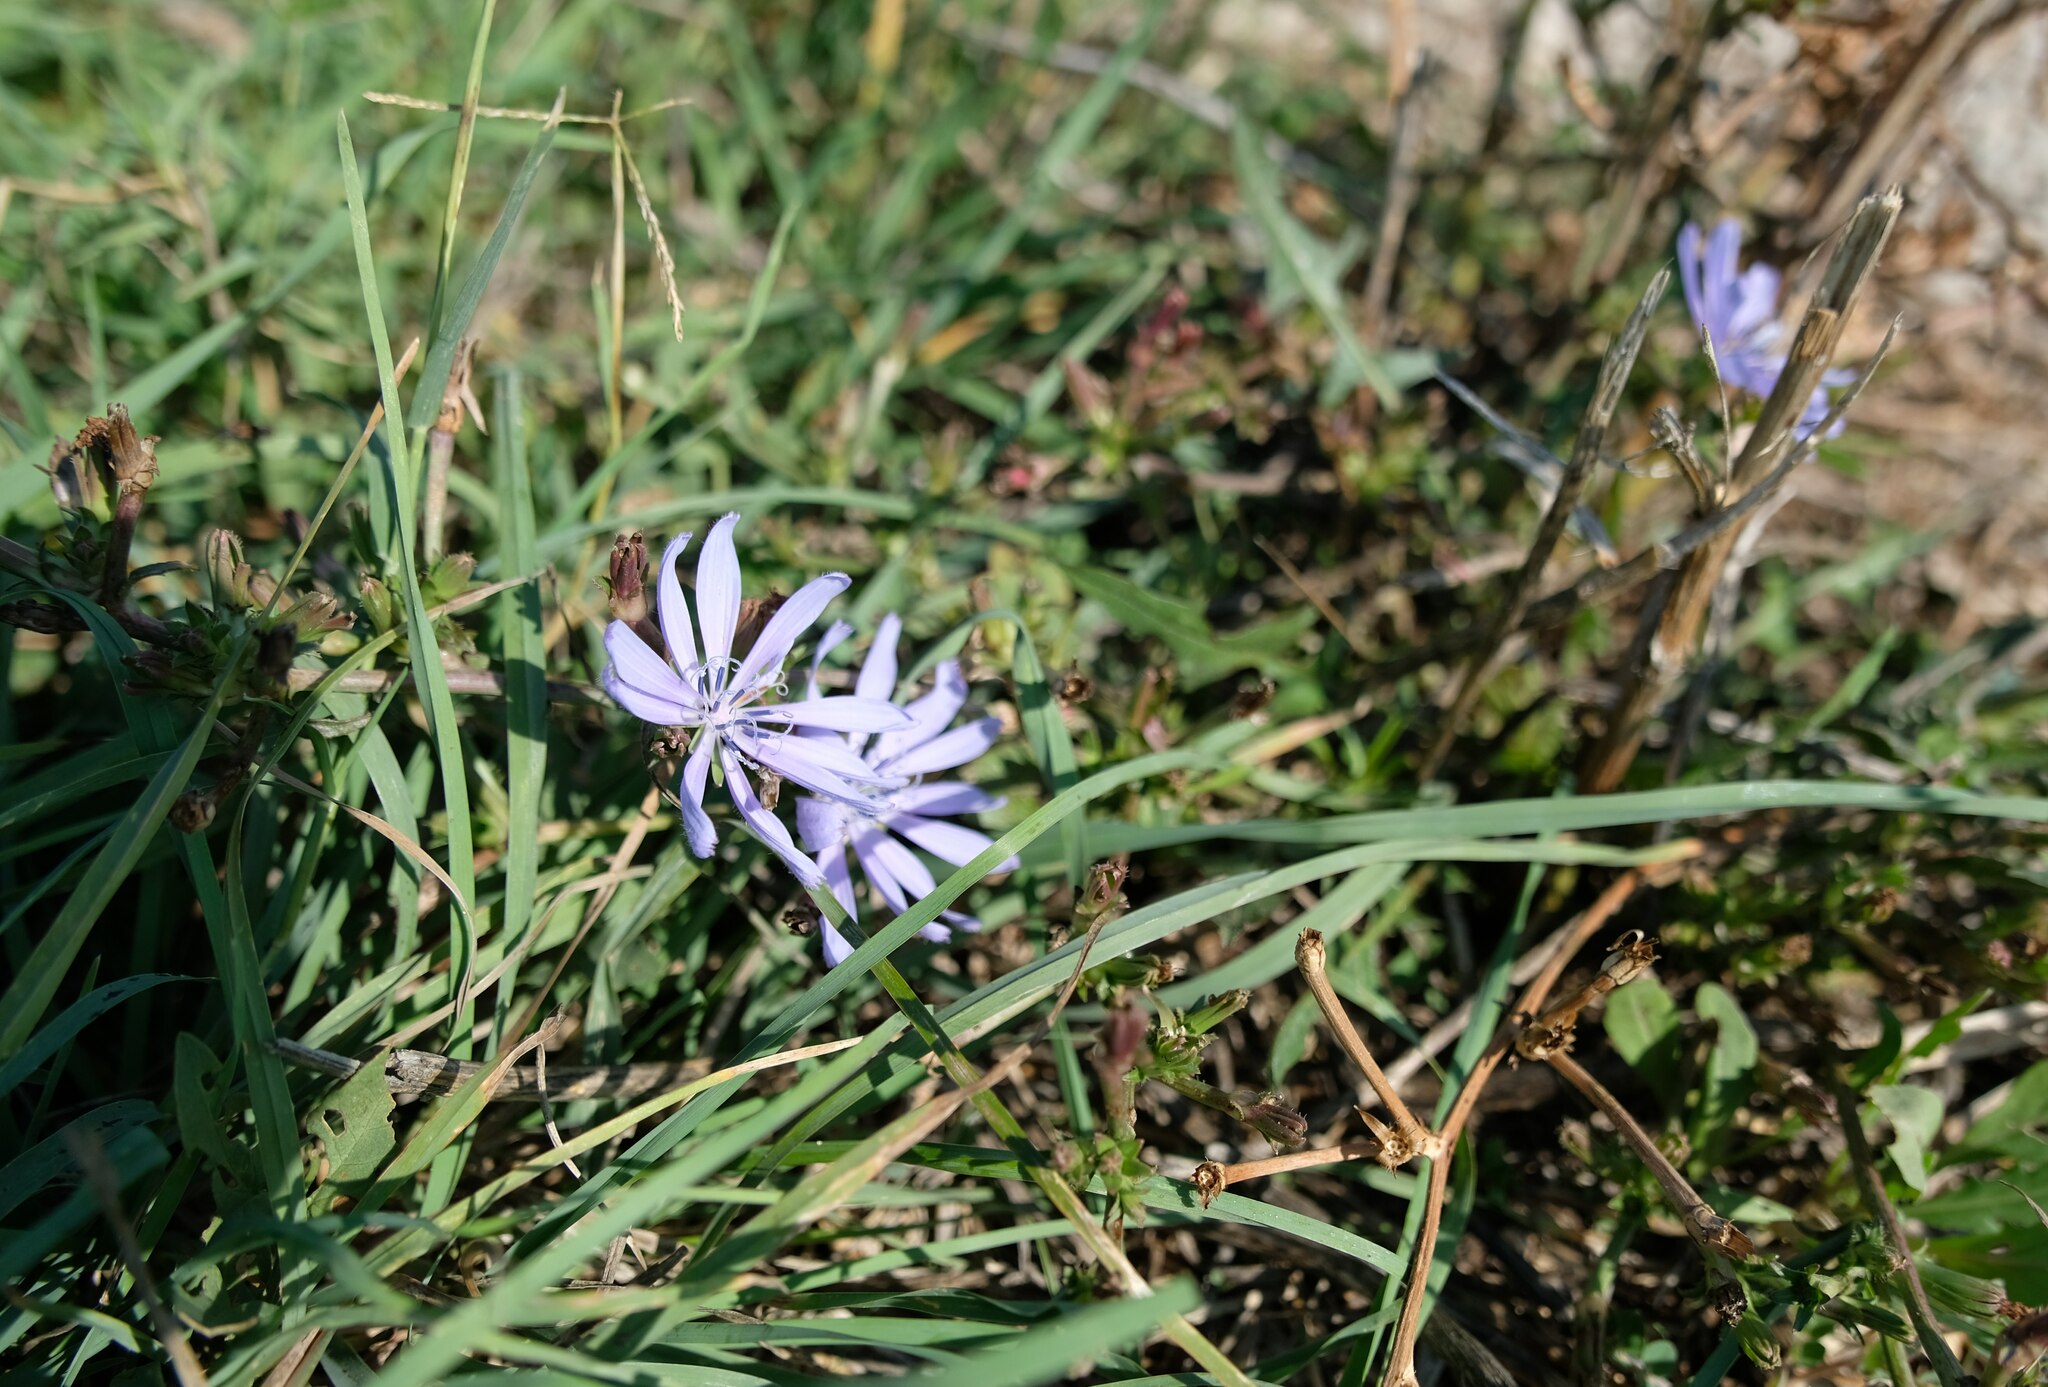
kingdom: Plantae
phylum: Tracheophyta
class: Magnoliopsida
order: Asterales
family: Asteraceae
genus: Cichorium
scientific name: Cichorium intybus
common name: Chicory
